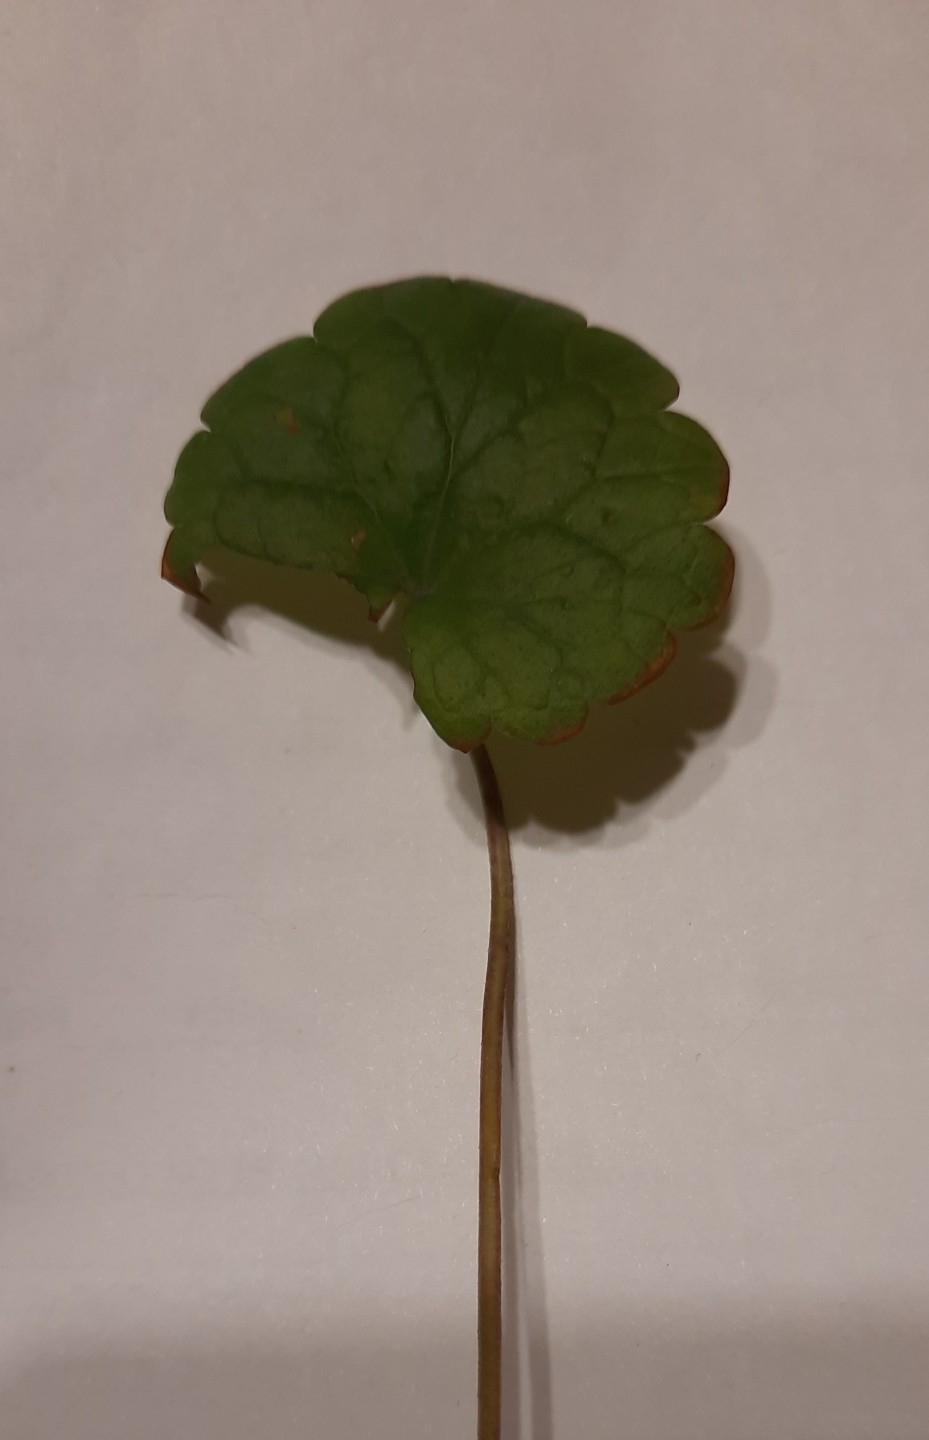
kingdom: Plantae
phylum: Tracheophyta
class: Magnoliopsida
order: Lamiales
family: Lamiaceae
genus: Glechoma
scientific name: Glechoma hederacea
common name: Ground ivy
